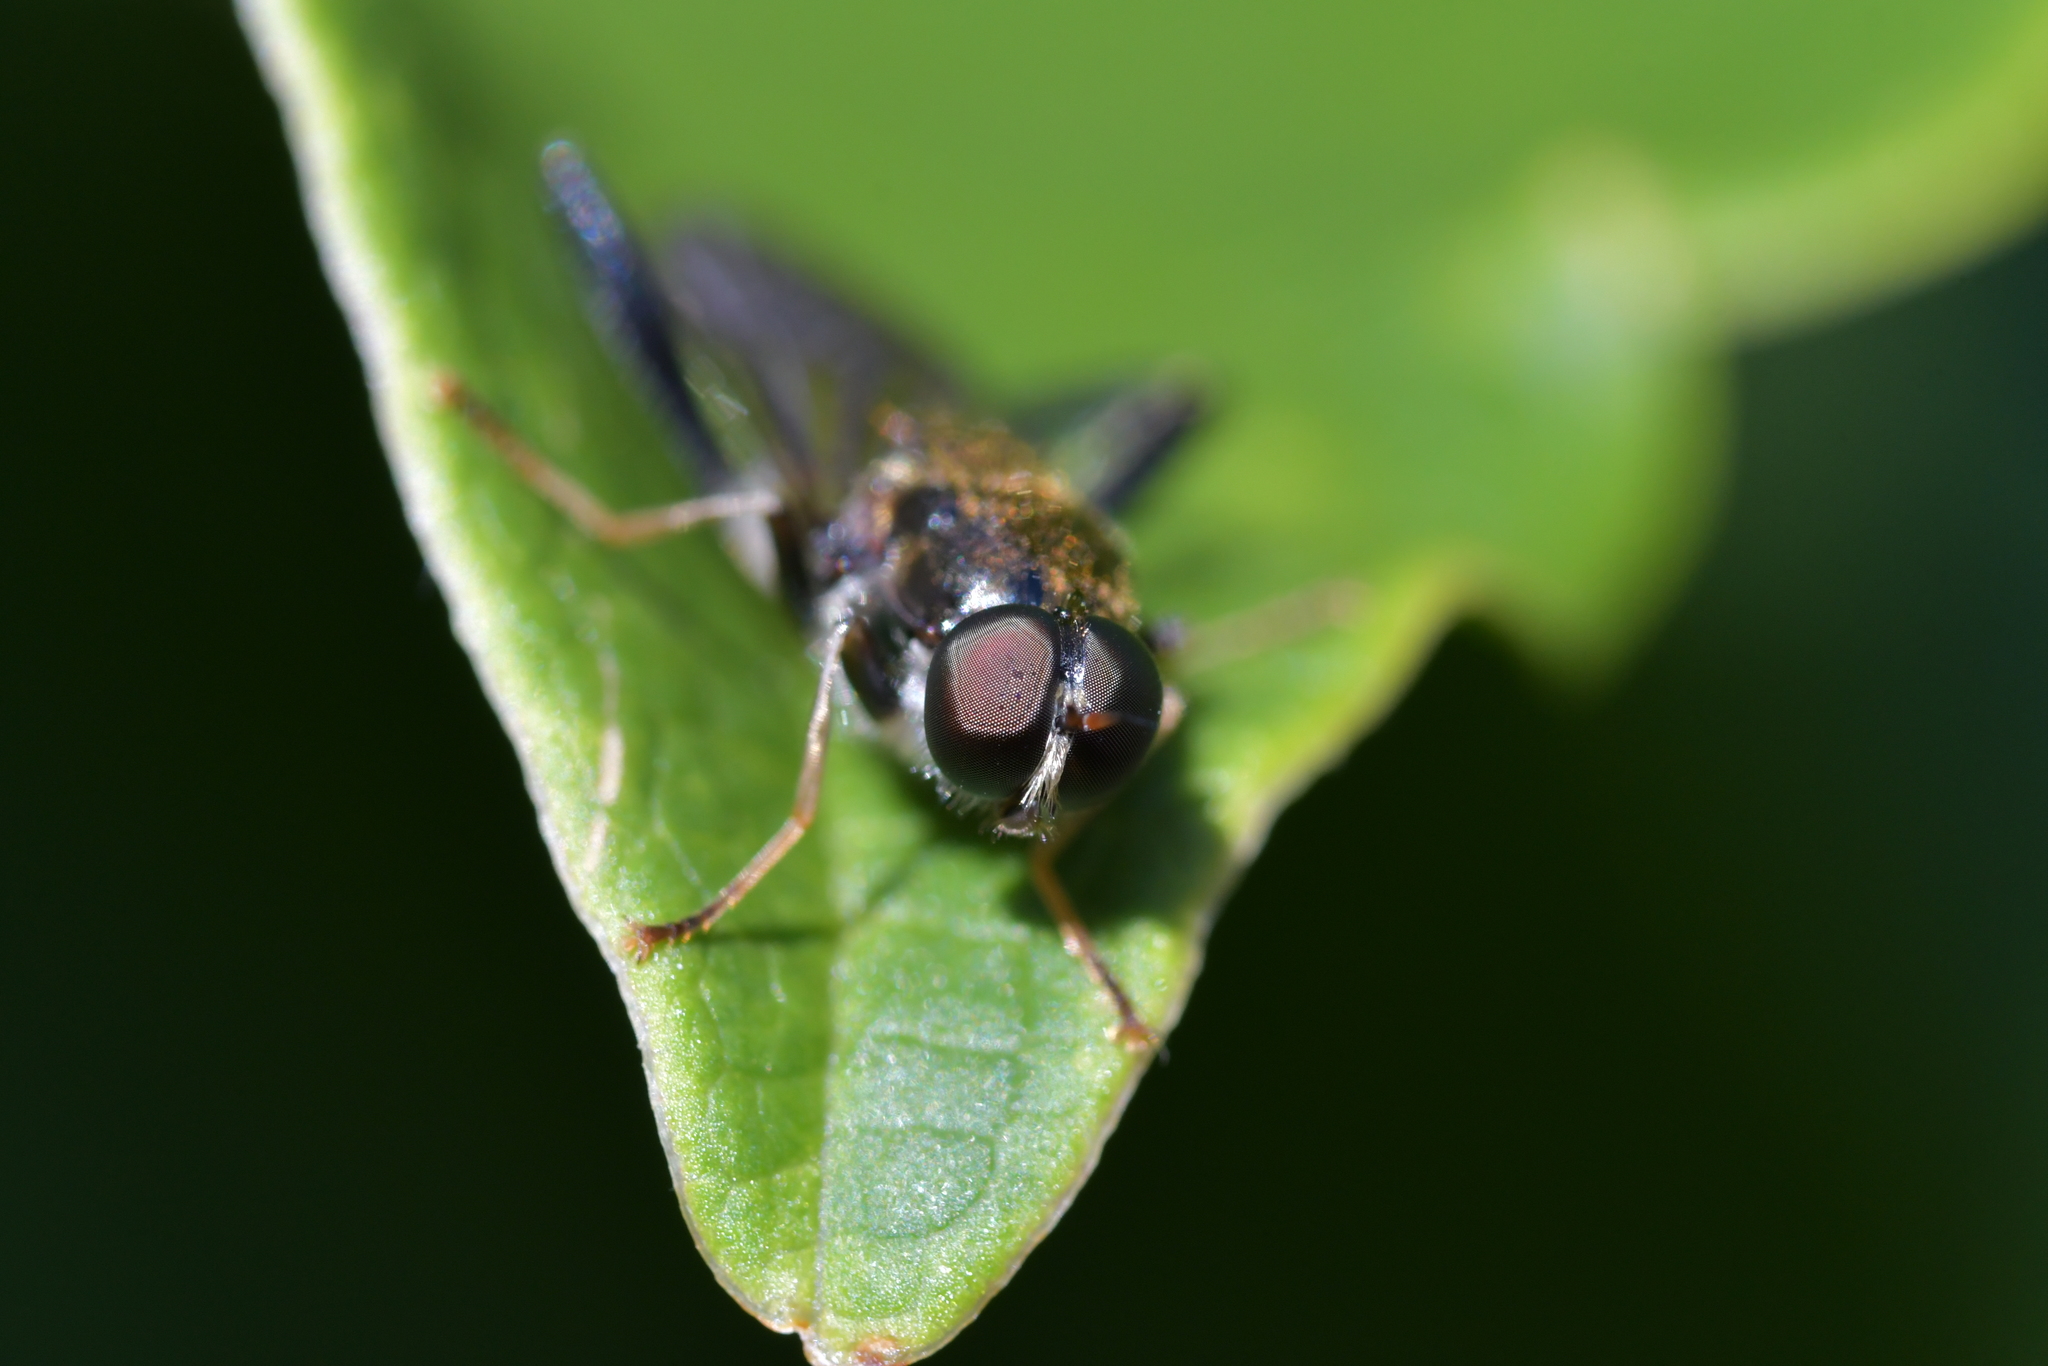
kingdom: Animalia
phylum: Arthropoda
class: Insecta
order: Diptera
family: Stratiomyidae
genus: Exaireta
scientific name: Exaireta spinigera
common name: Blue soldier fly
